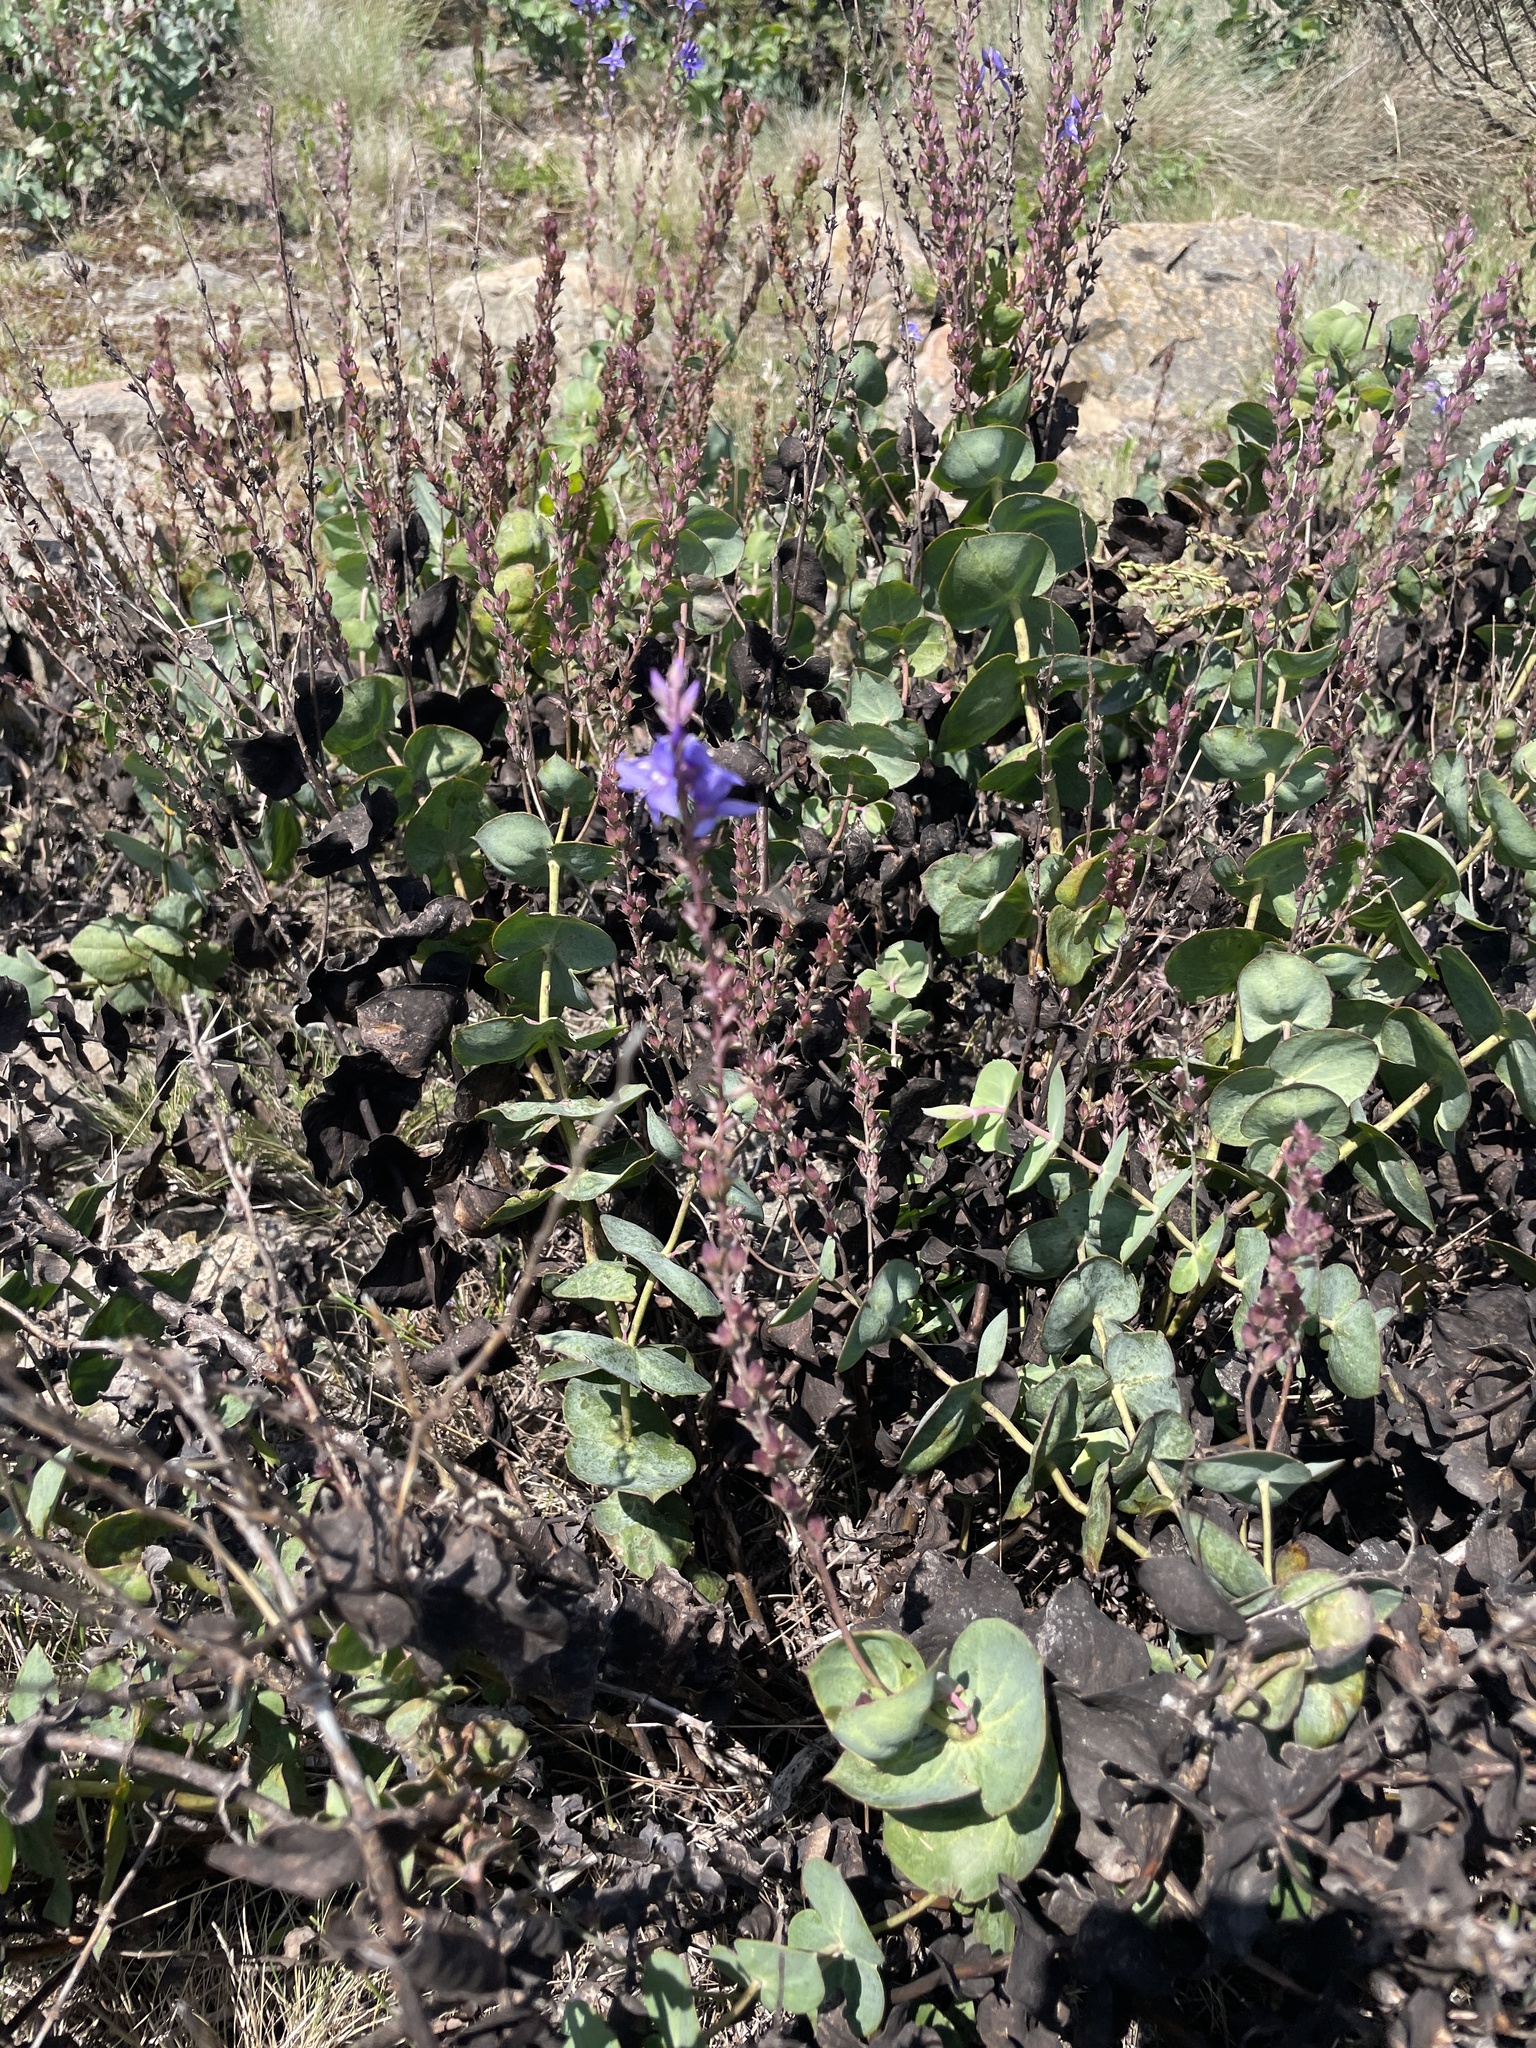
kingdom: Plantae
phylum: Tracheophyta
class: Magnoliopsida
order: Lamiales
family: Plantaginaceae
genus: Veronica
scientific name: Veronica perfoliata
